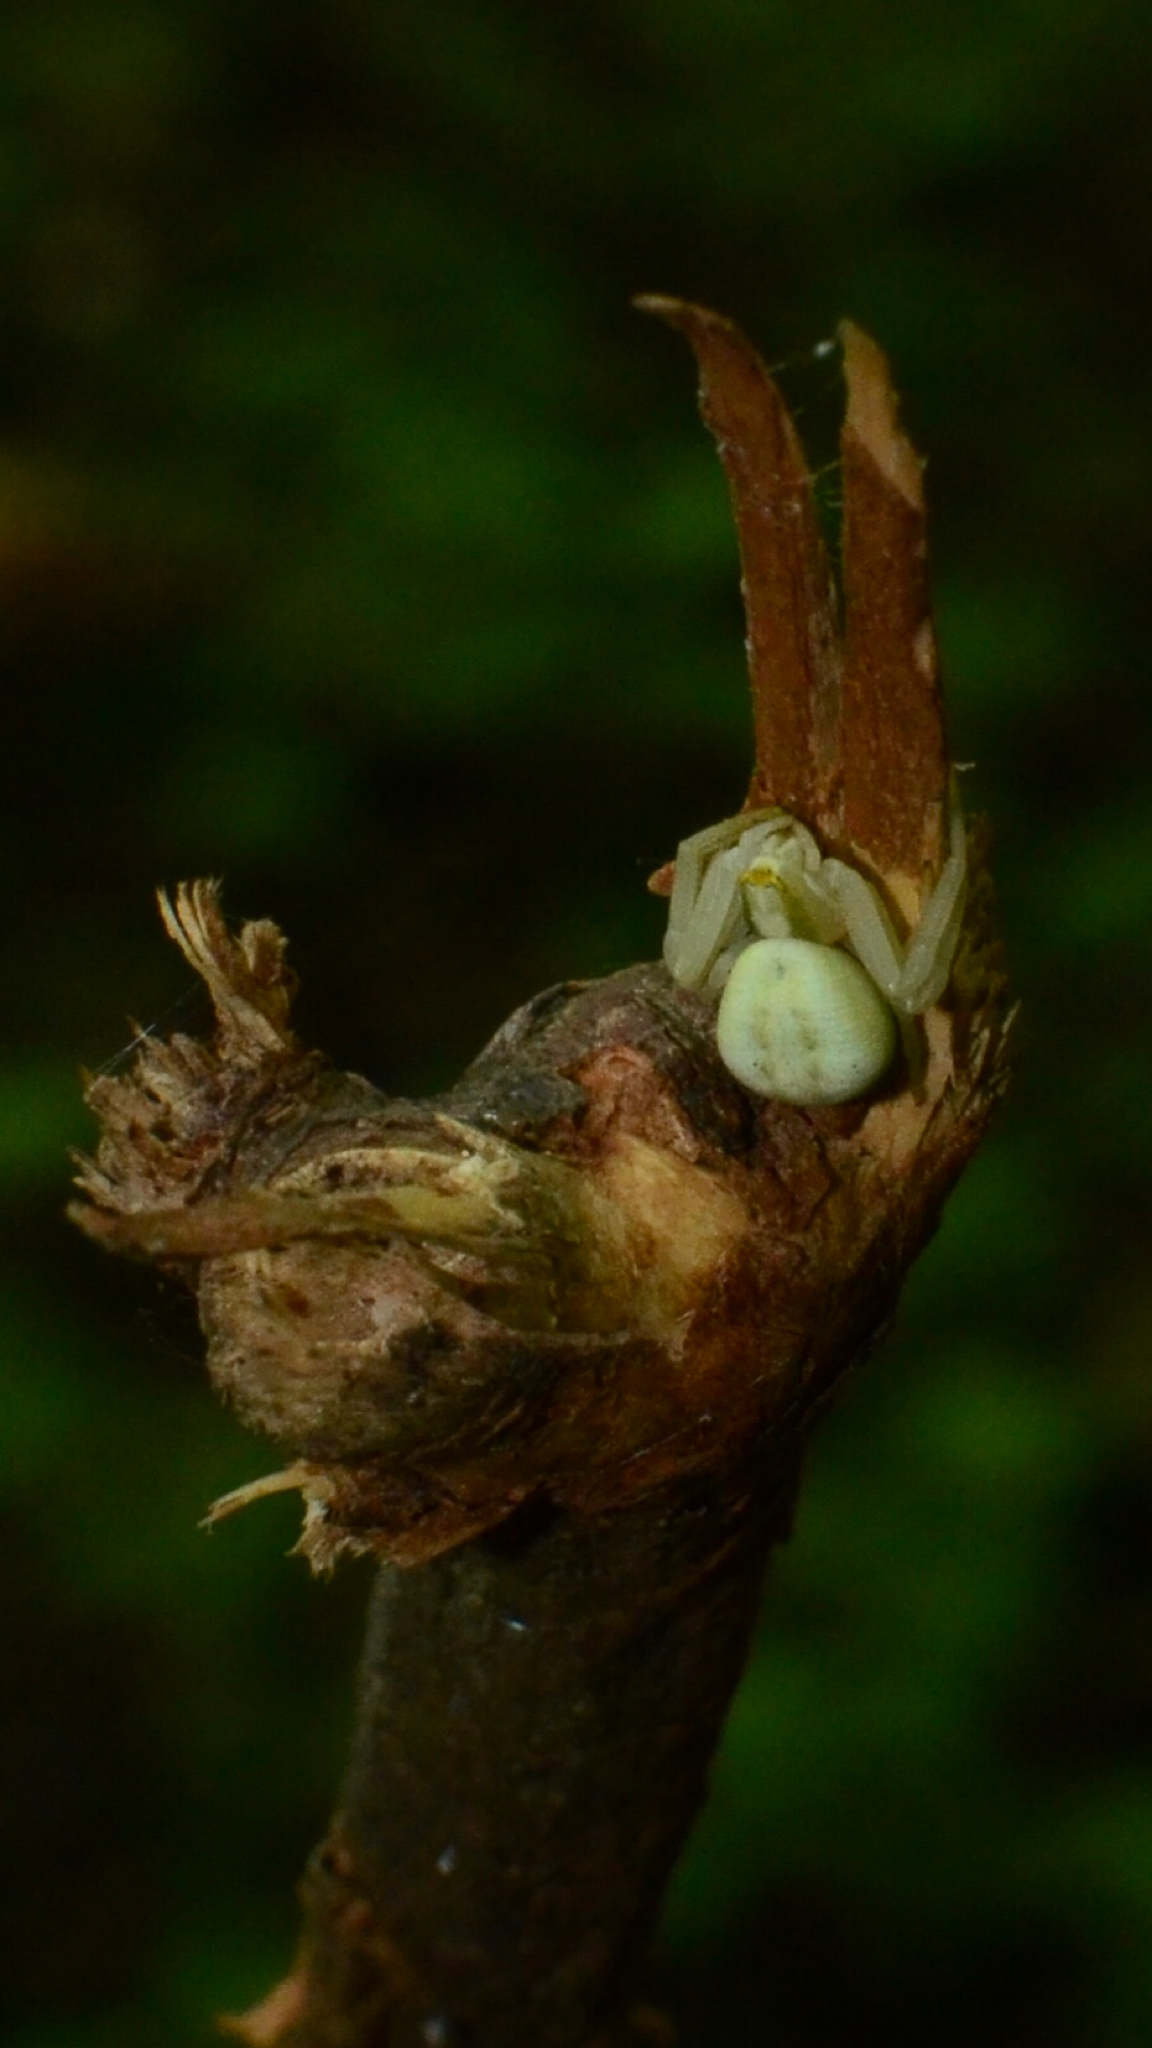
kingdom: Animalia
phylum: Arthropoda
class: Arachnida
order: Araneae
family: Thomisidae
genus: Misumena
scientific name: Misumena vatia
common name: Goldenrod crab spider
